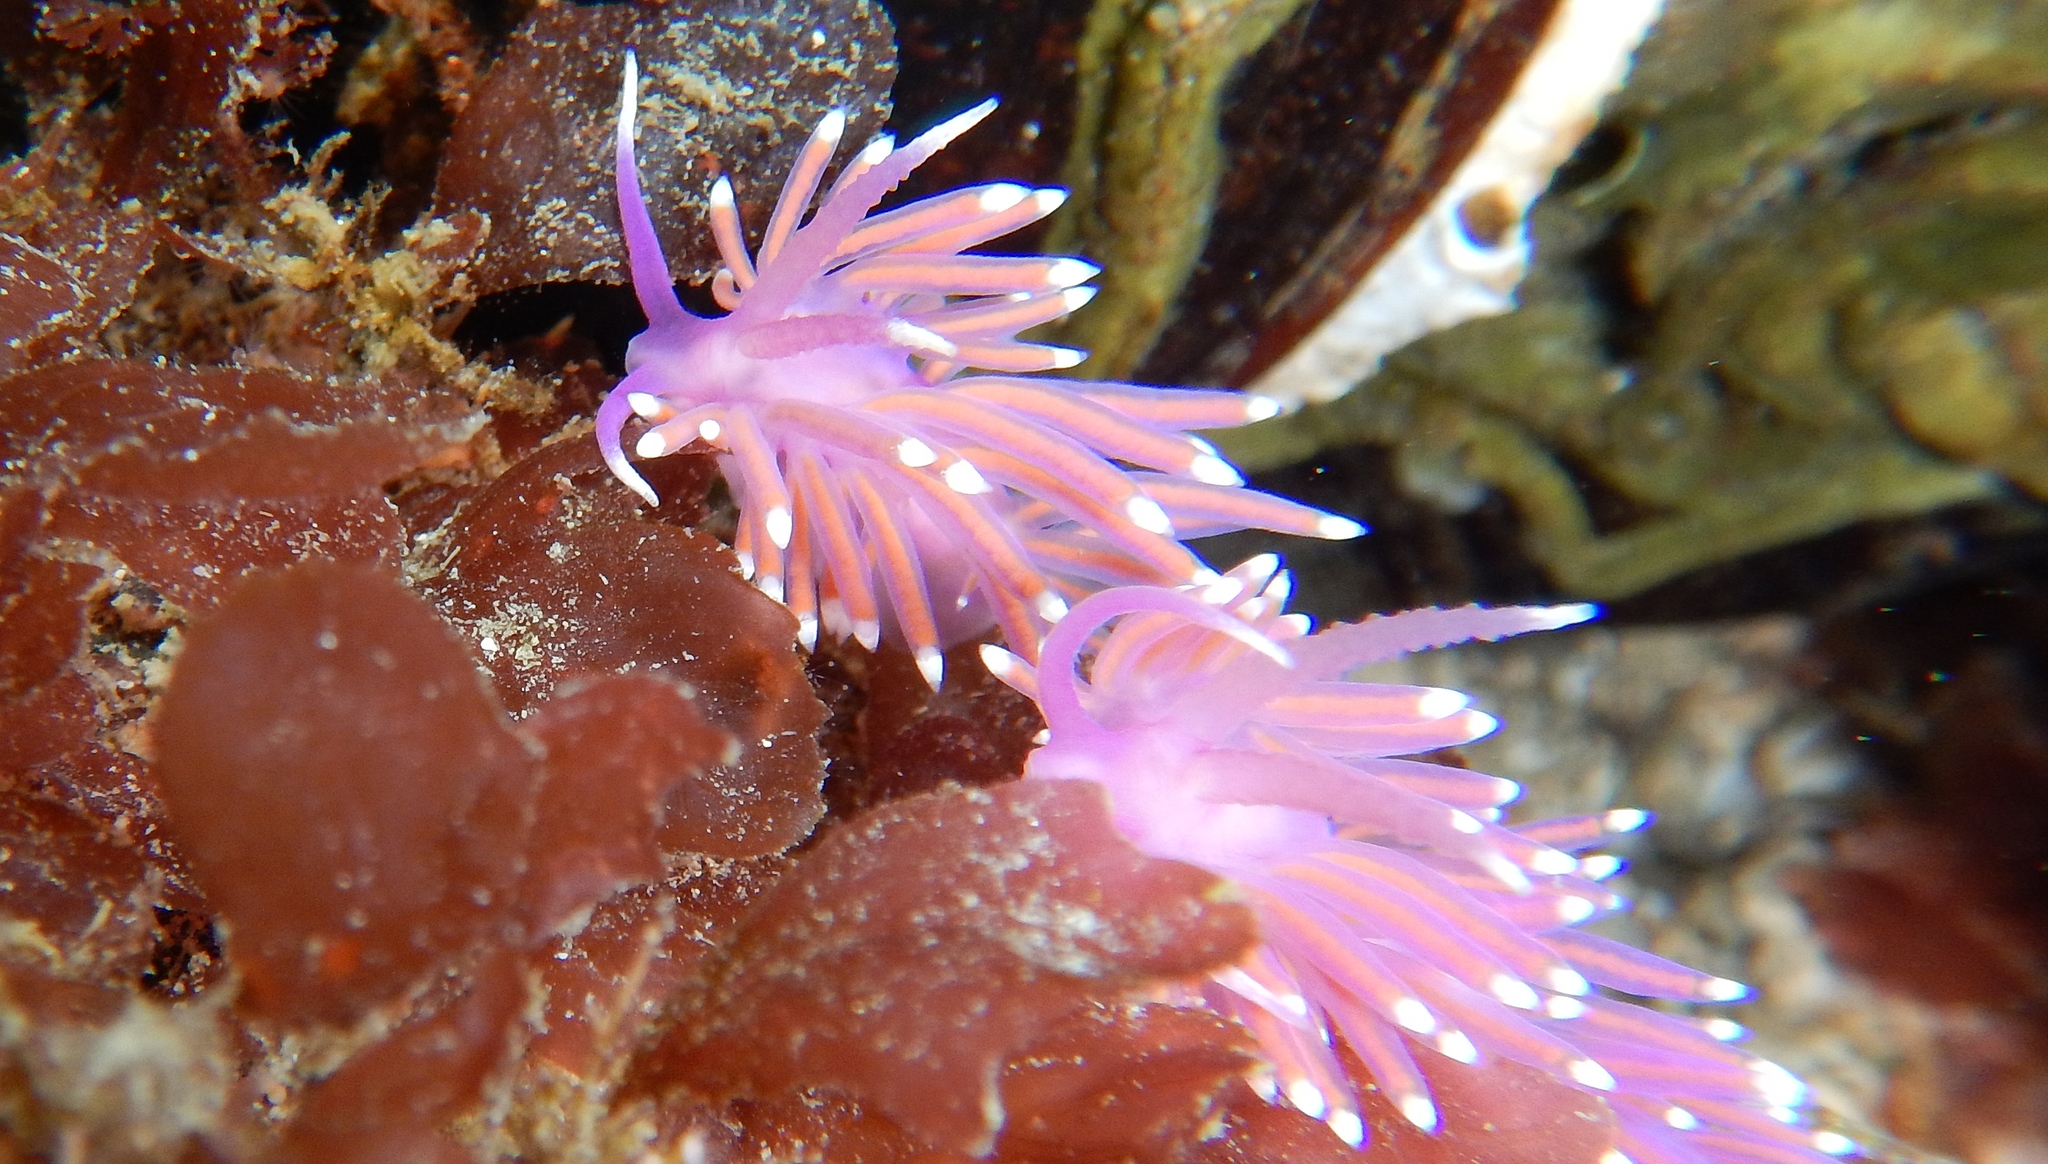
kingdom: Animalia
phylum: Mollusca
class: Gastropoda
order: Nudibranchia
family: Flabellinidae
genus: Edmundsella
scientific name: Edmundsella pedata
